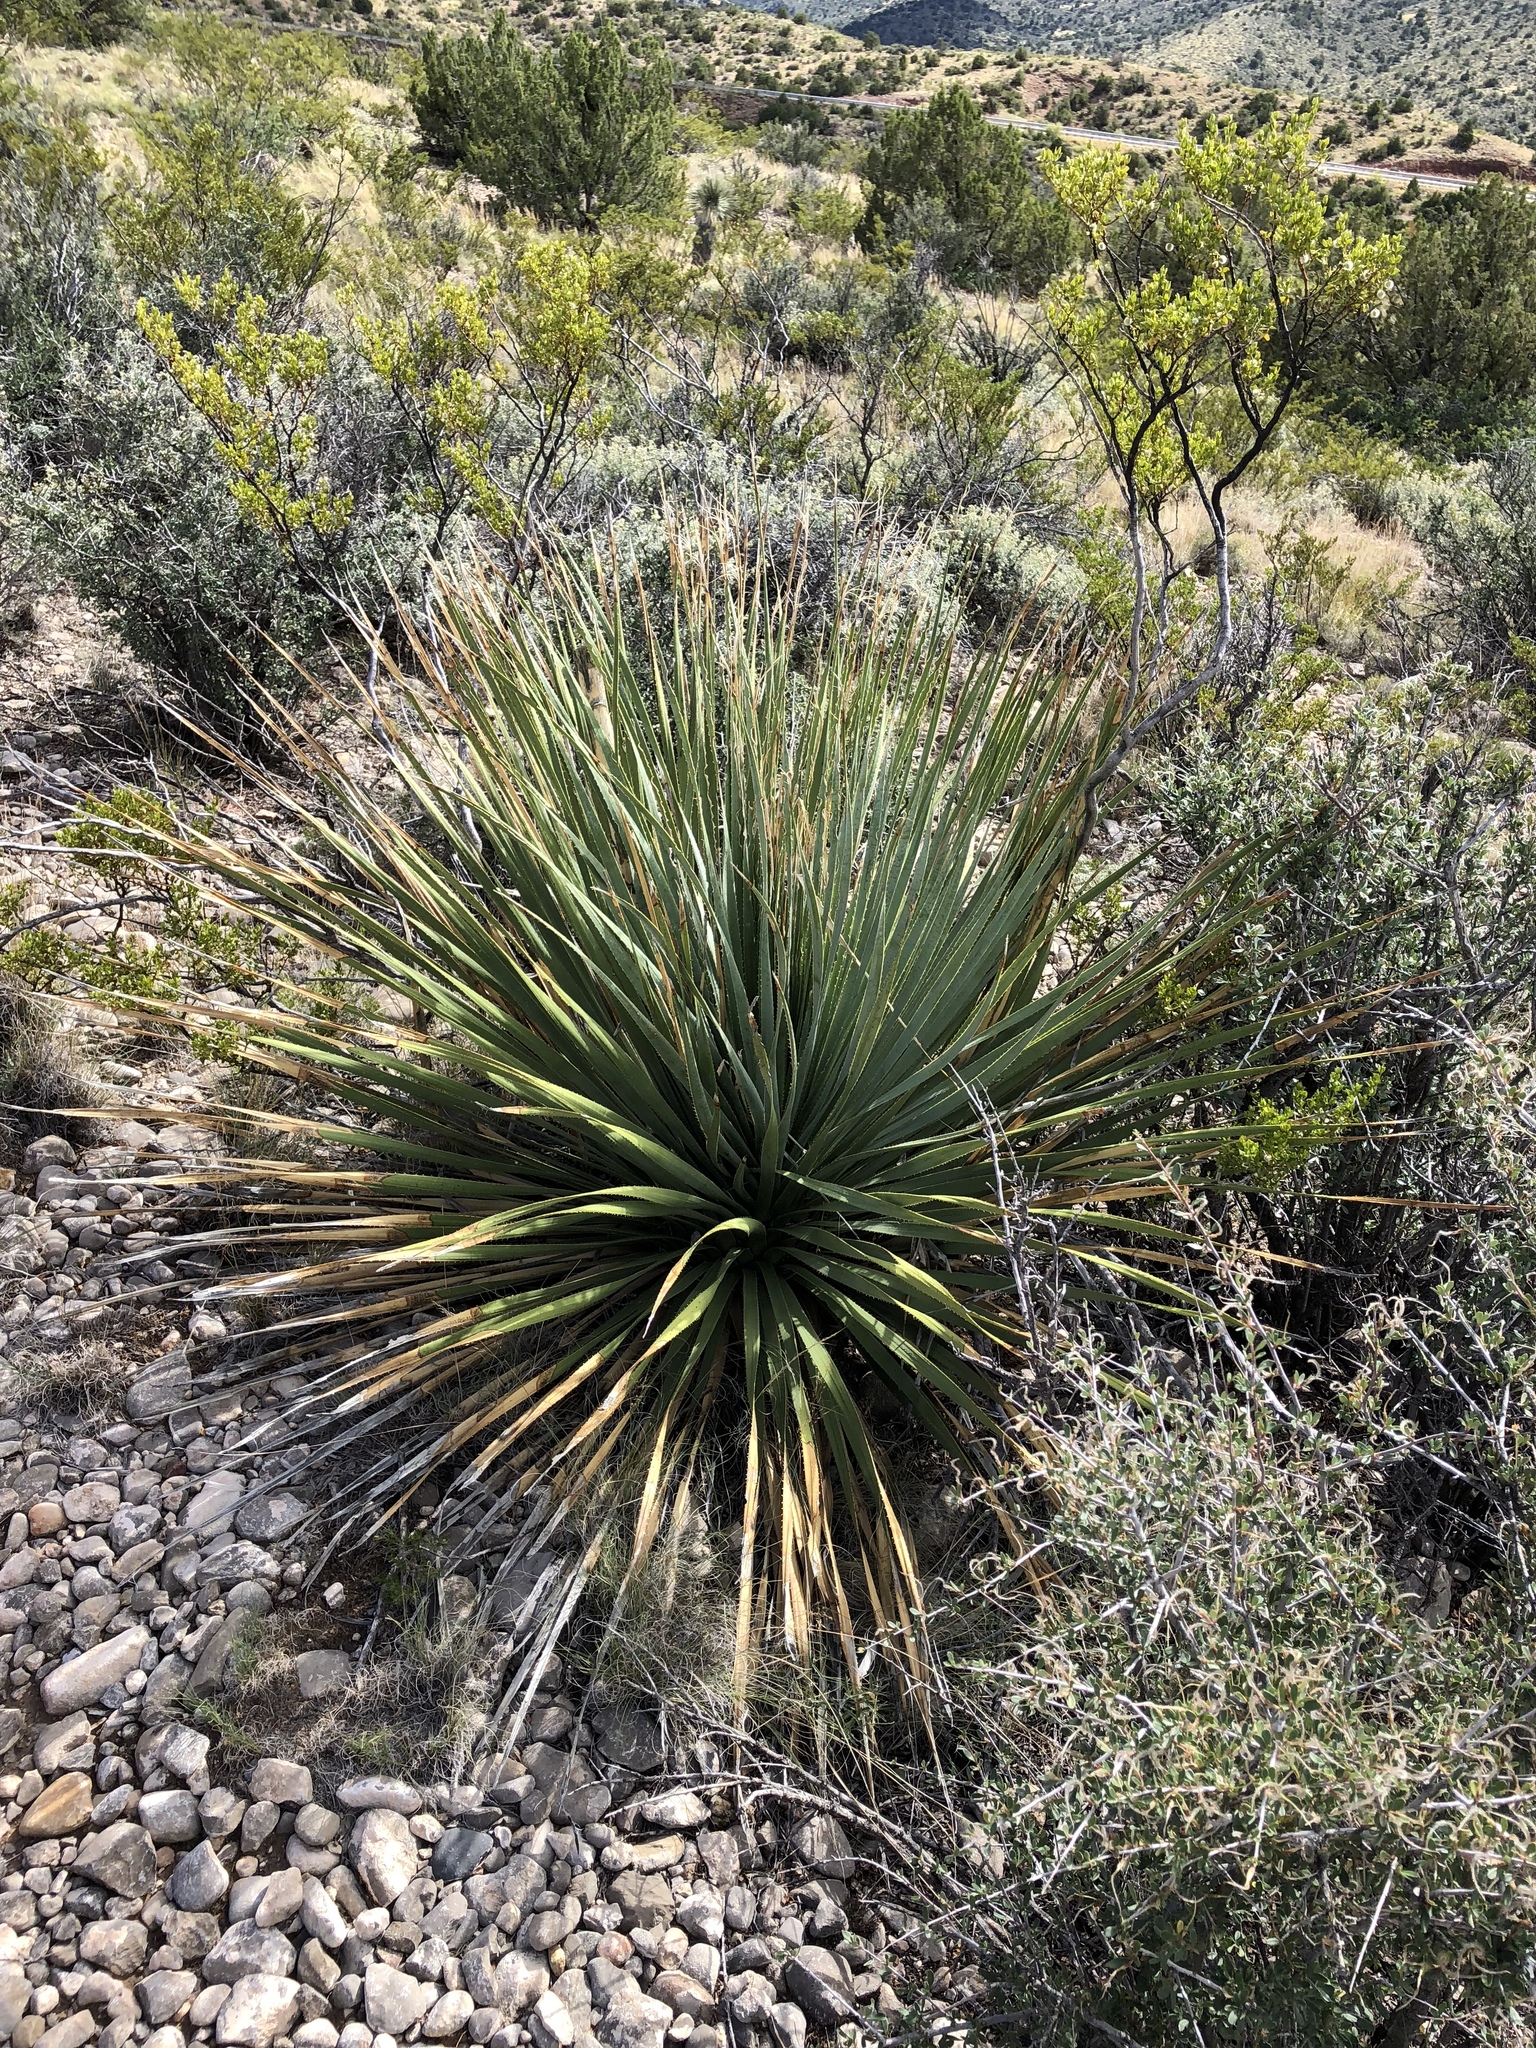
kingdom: Plantae
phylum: Tracheophyta
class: Liliopsida
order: Asparagales
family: Asparagaceae
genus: Dasylirion
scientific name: Dasylirion wheeleri
